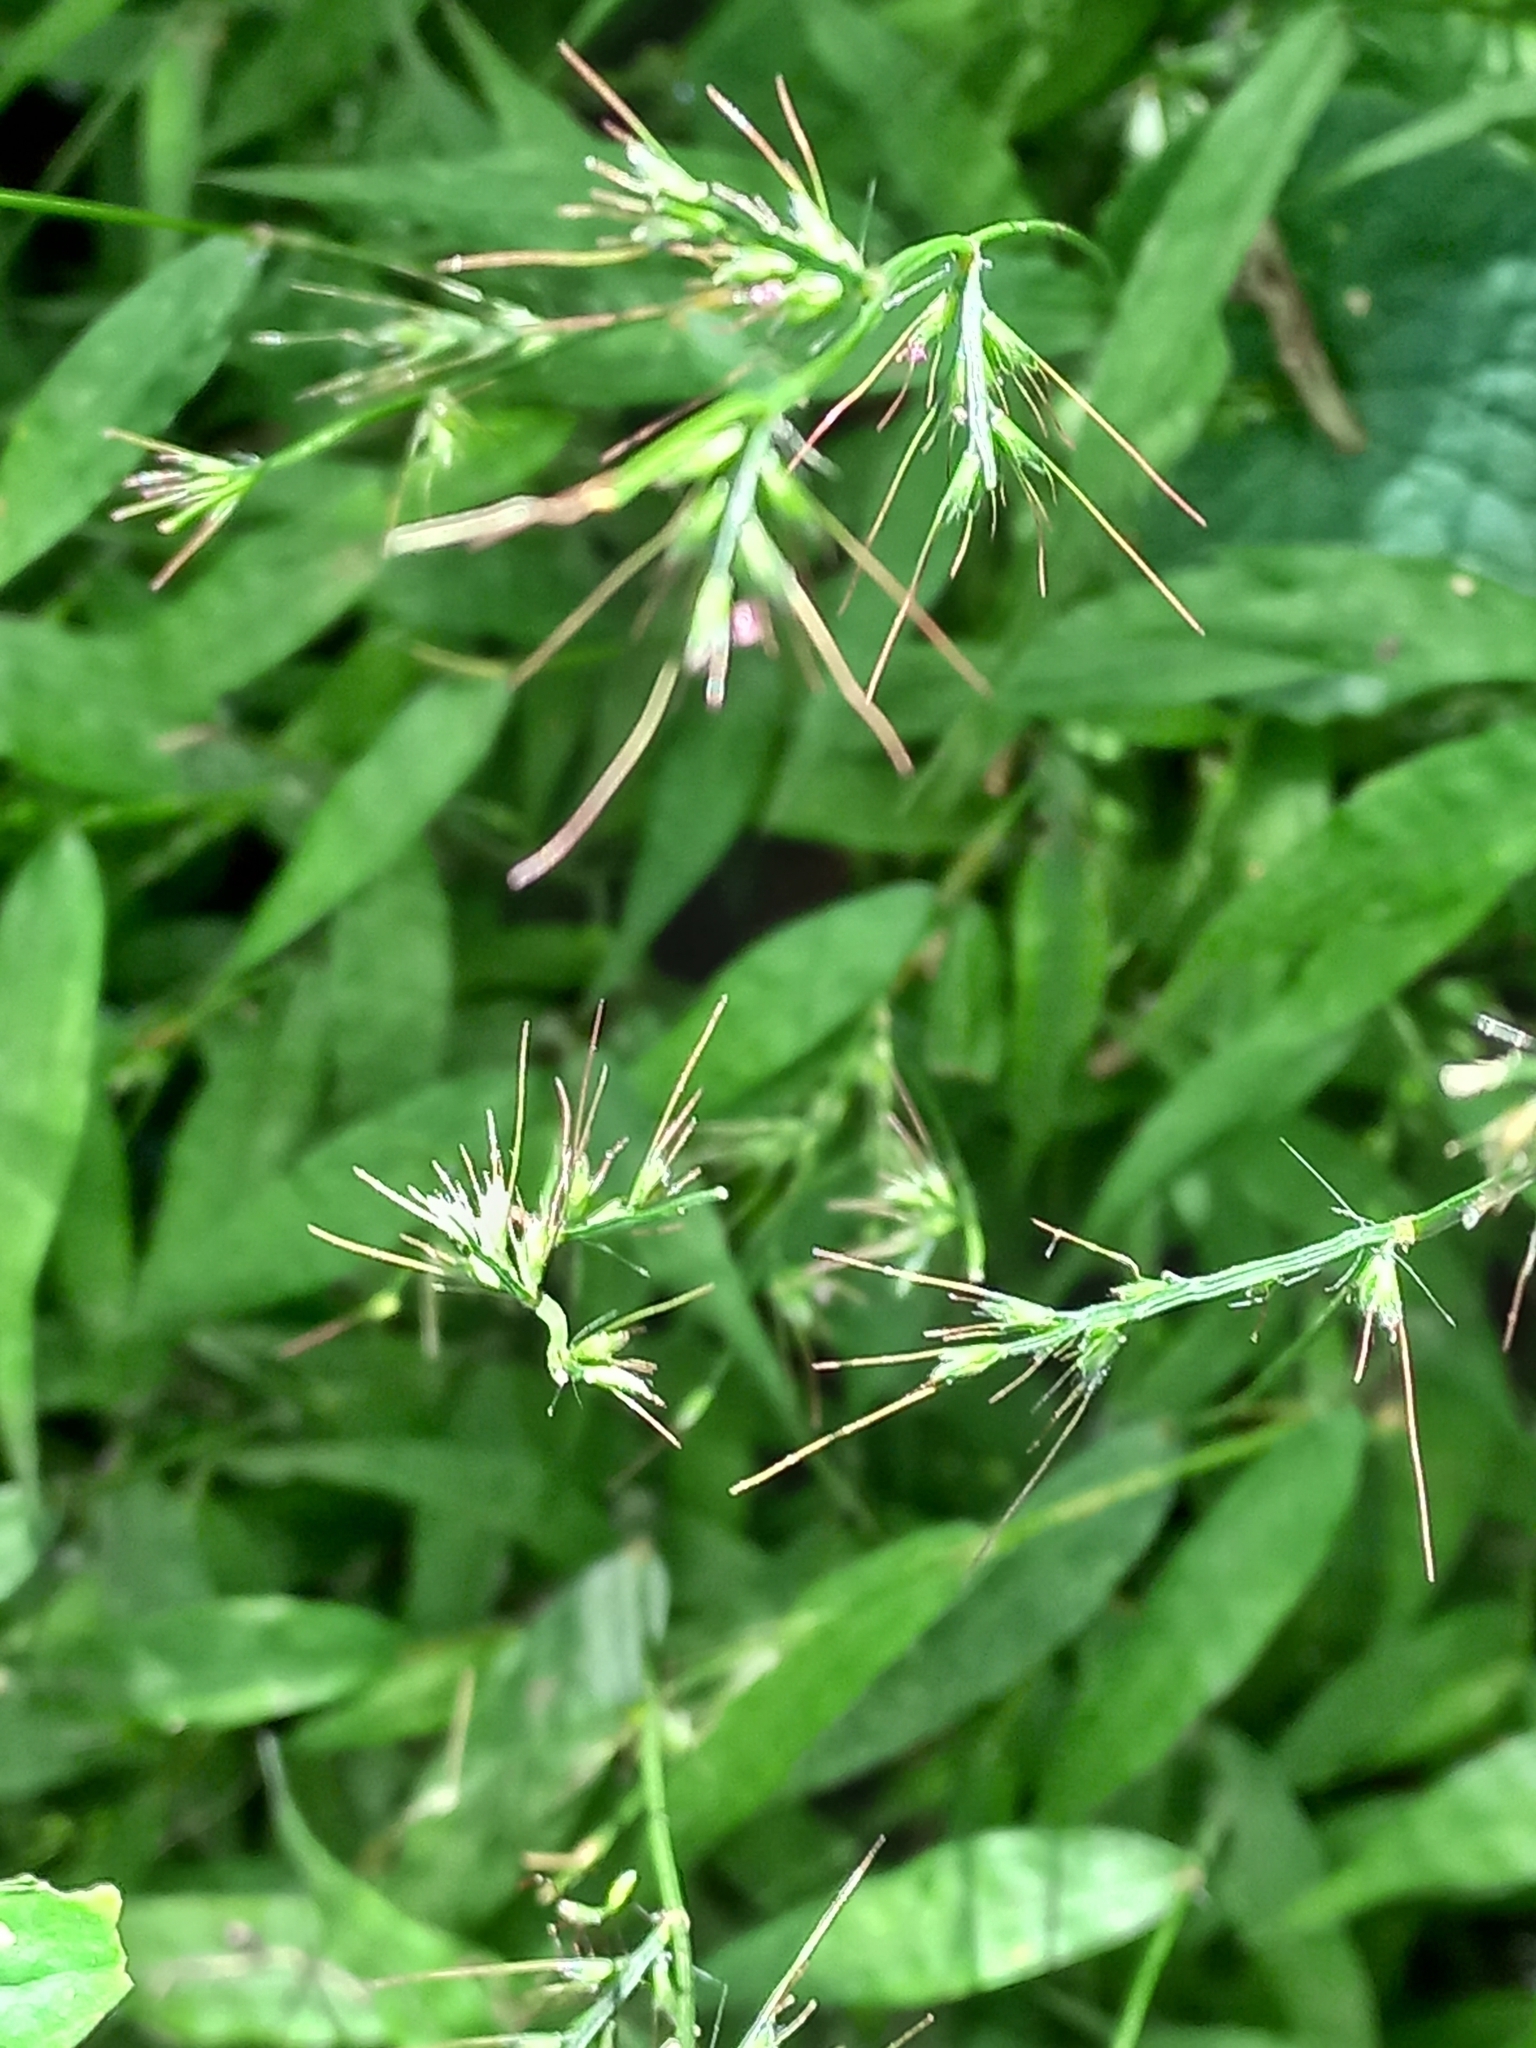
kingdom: Plantae
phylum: Tracheophyta
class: Liliopsida
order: Poales
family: Poaceae
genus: Oplismenus
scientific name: Oplismenus hirtellus
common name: Basketgrass
